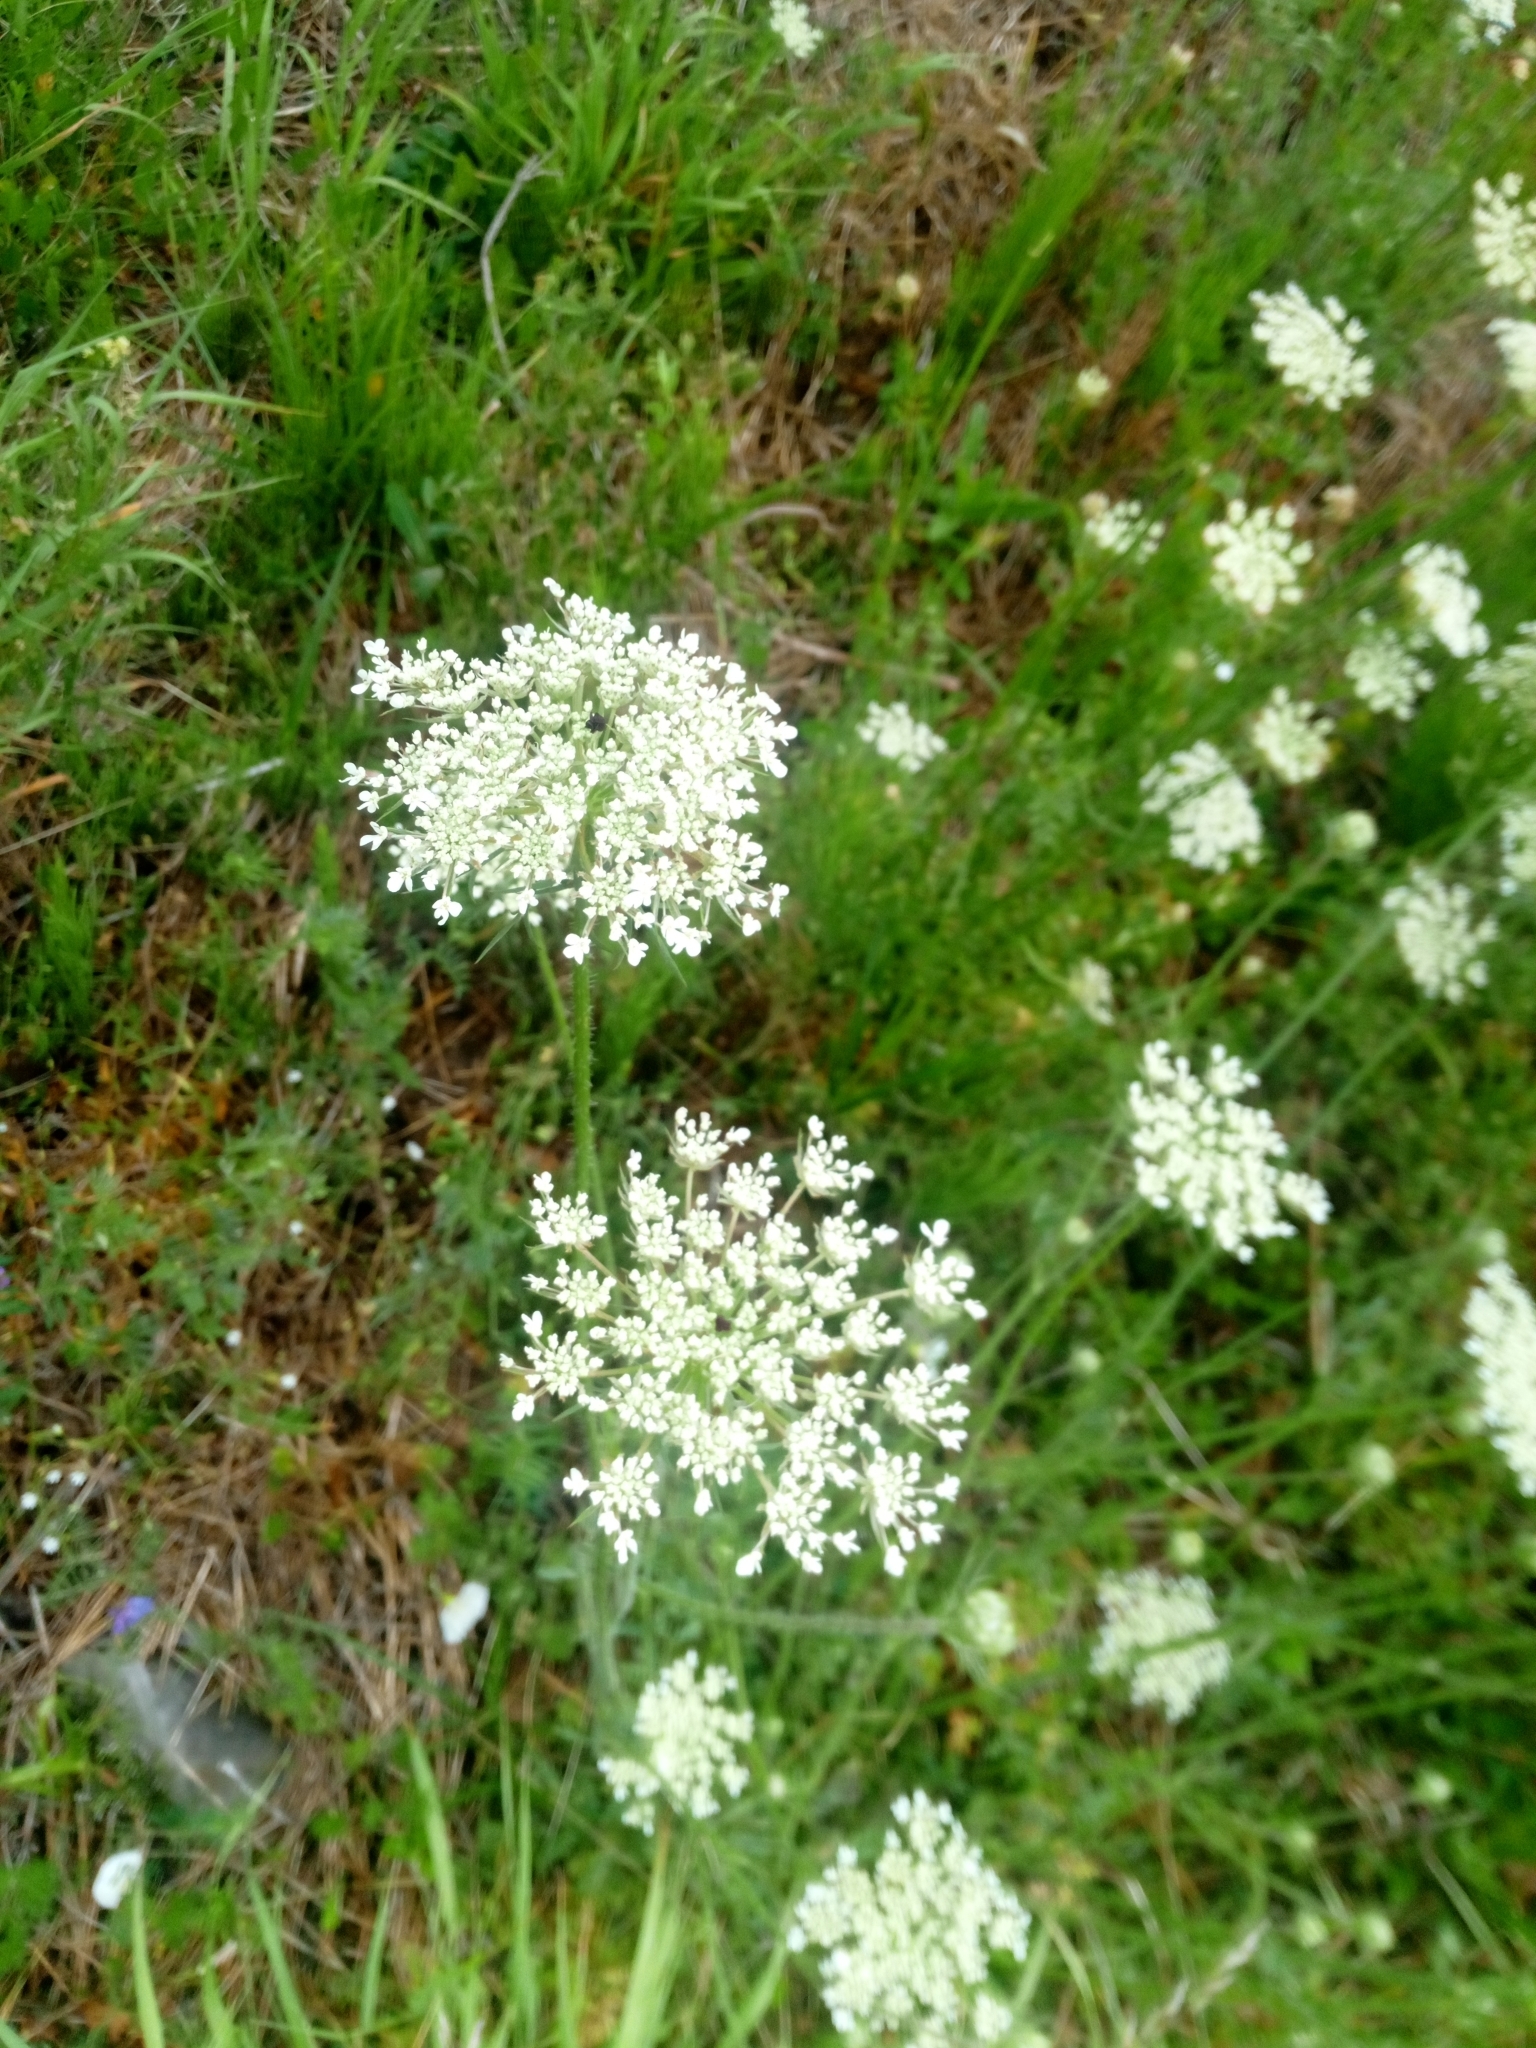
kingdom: Plantae
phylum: Tracheophyta
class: Magnoliopsida
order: Apiales
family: Apiaceae
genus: Daucus
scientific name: Daucus carota
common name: Wild carrot
